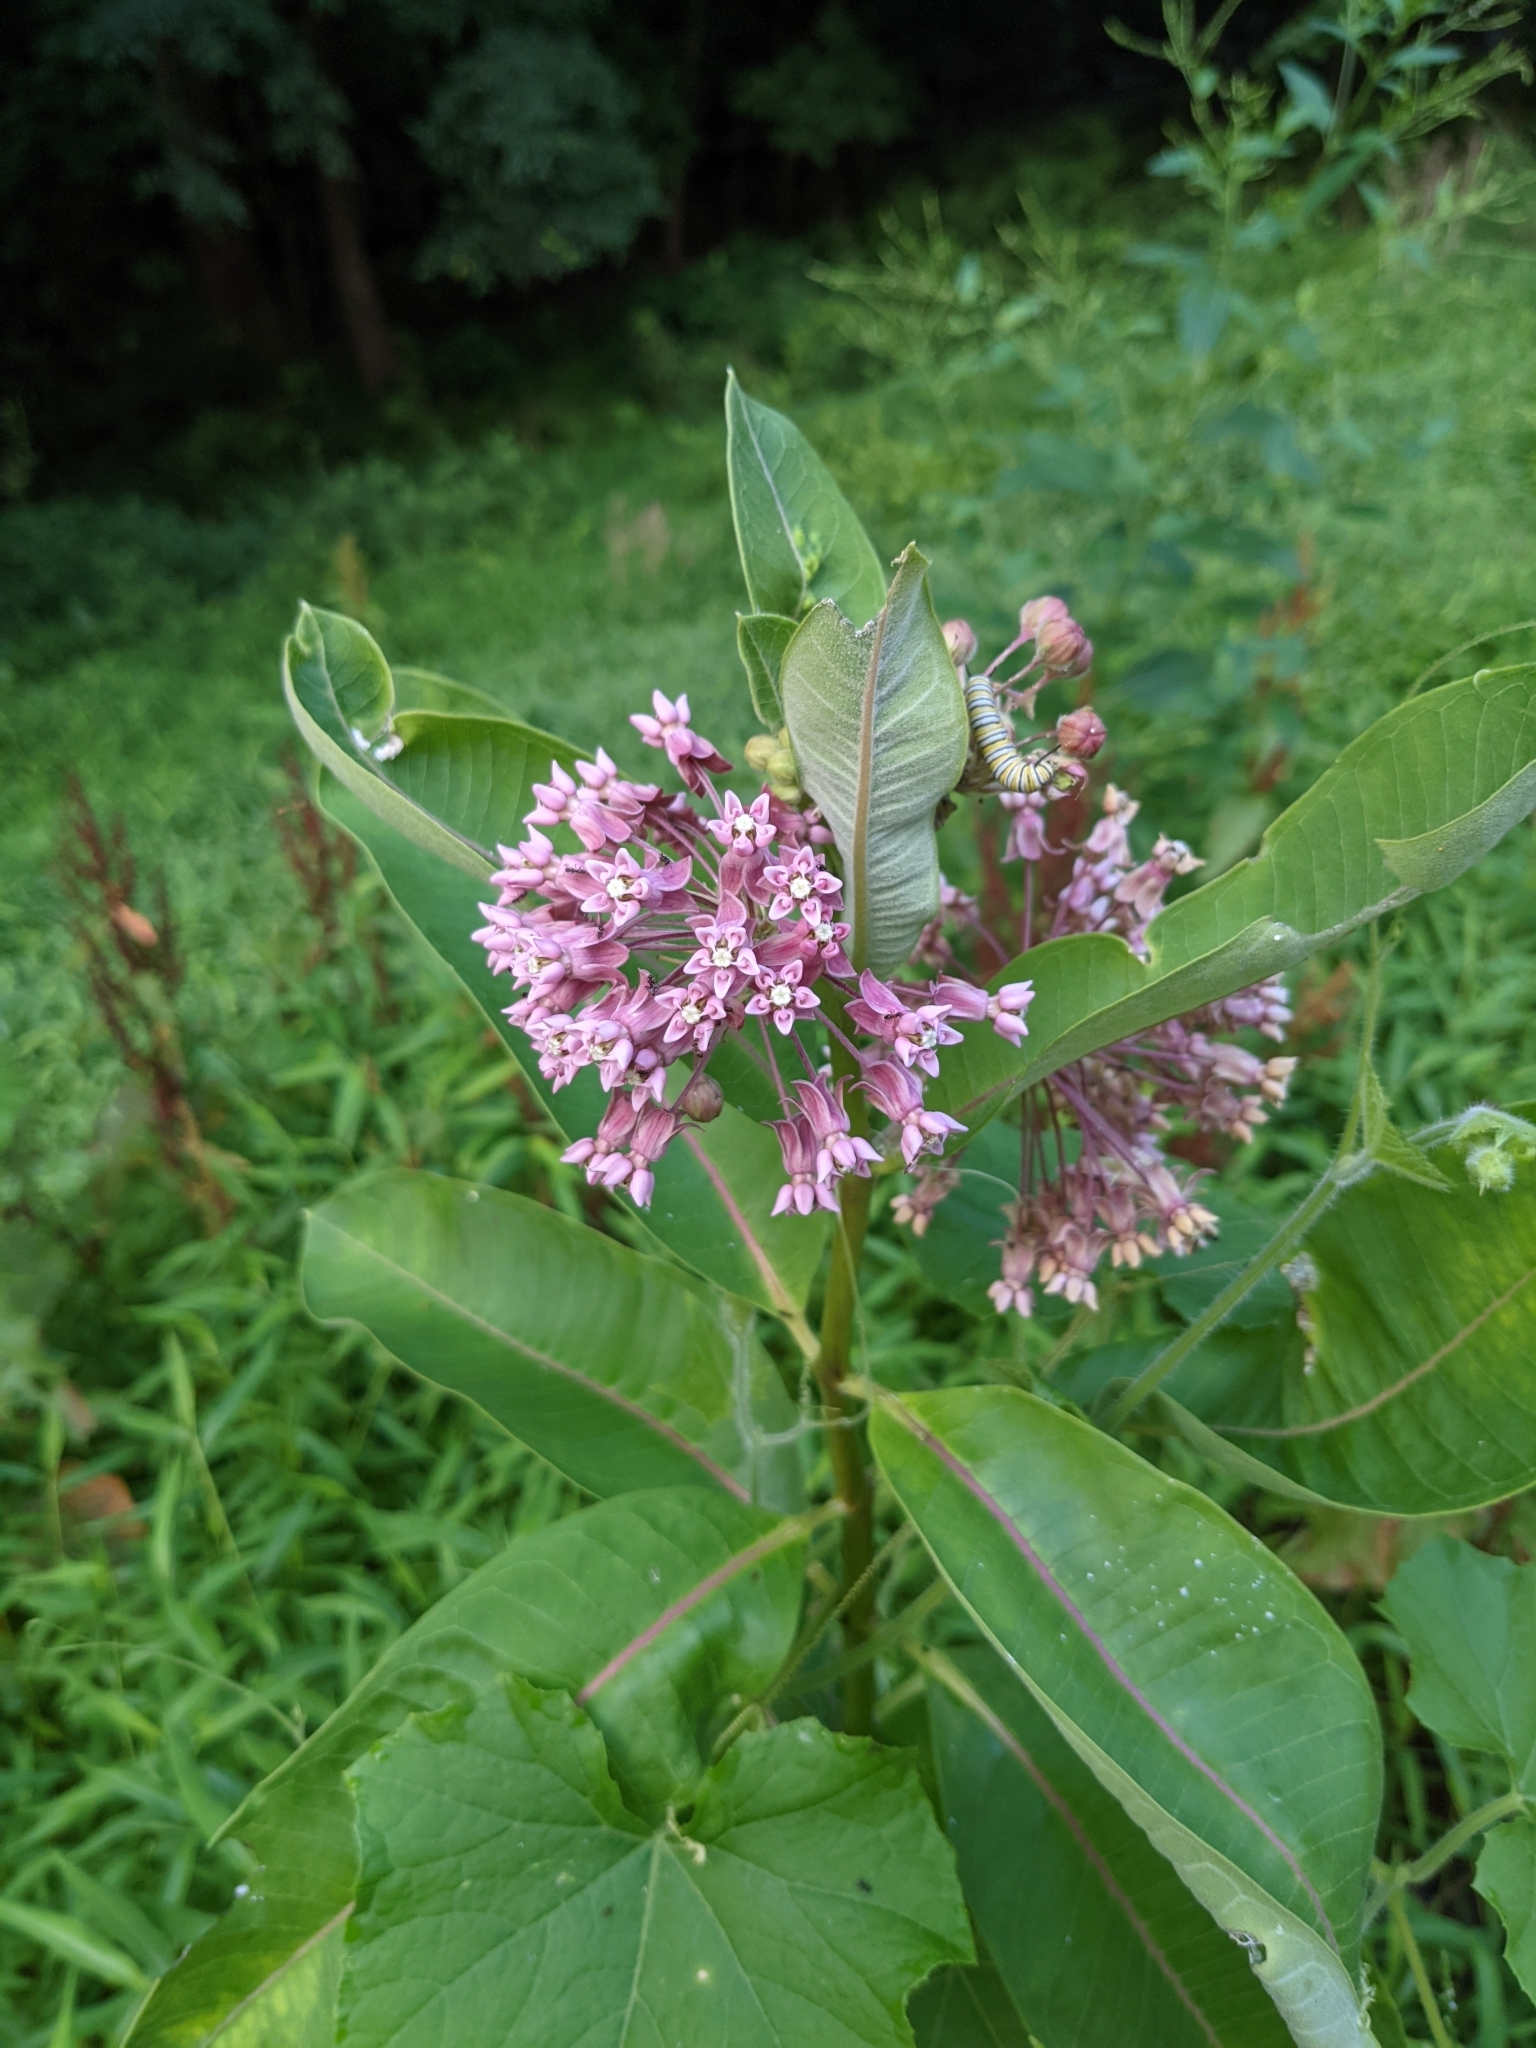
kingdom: Plantae
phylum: Tracheophyta
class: Magnoliopsida
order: Gentianales
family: Apocynaceae
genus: Asclepias
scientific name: Asclepias syriaca
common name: Common milkweed
